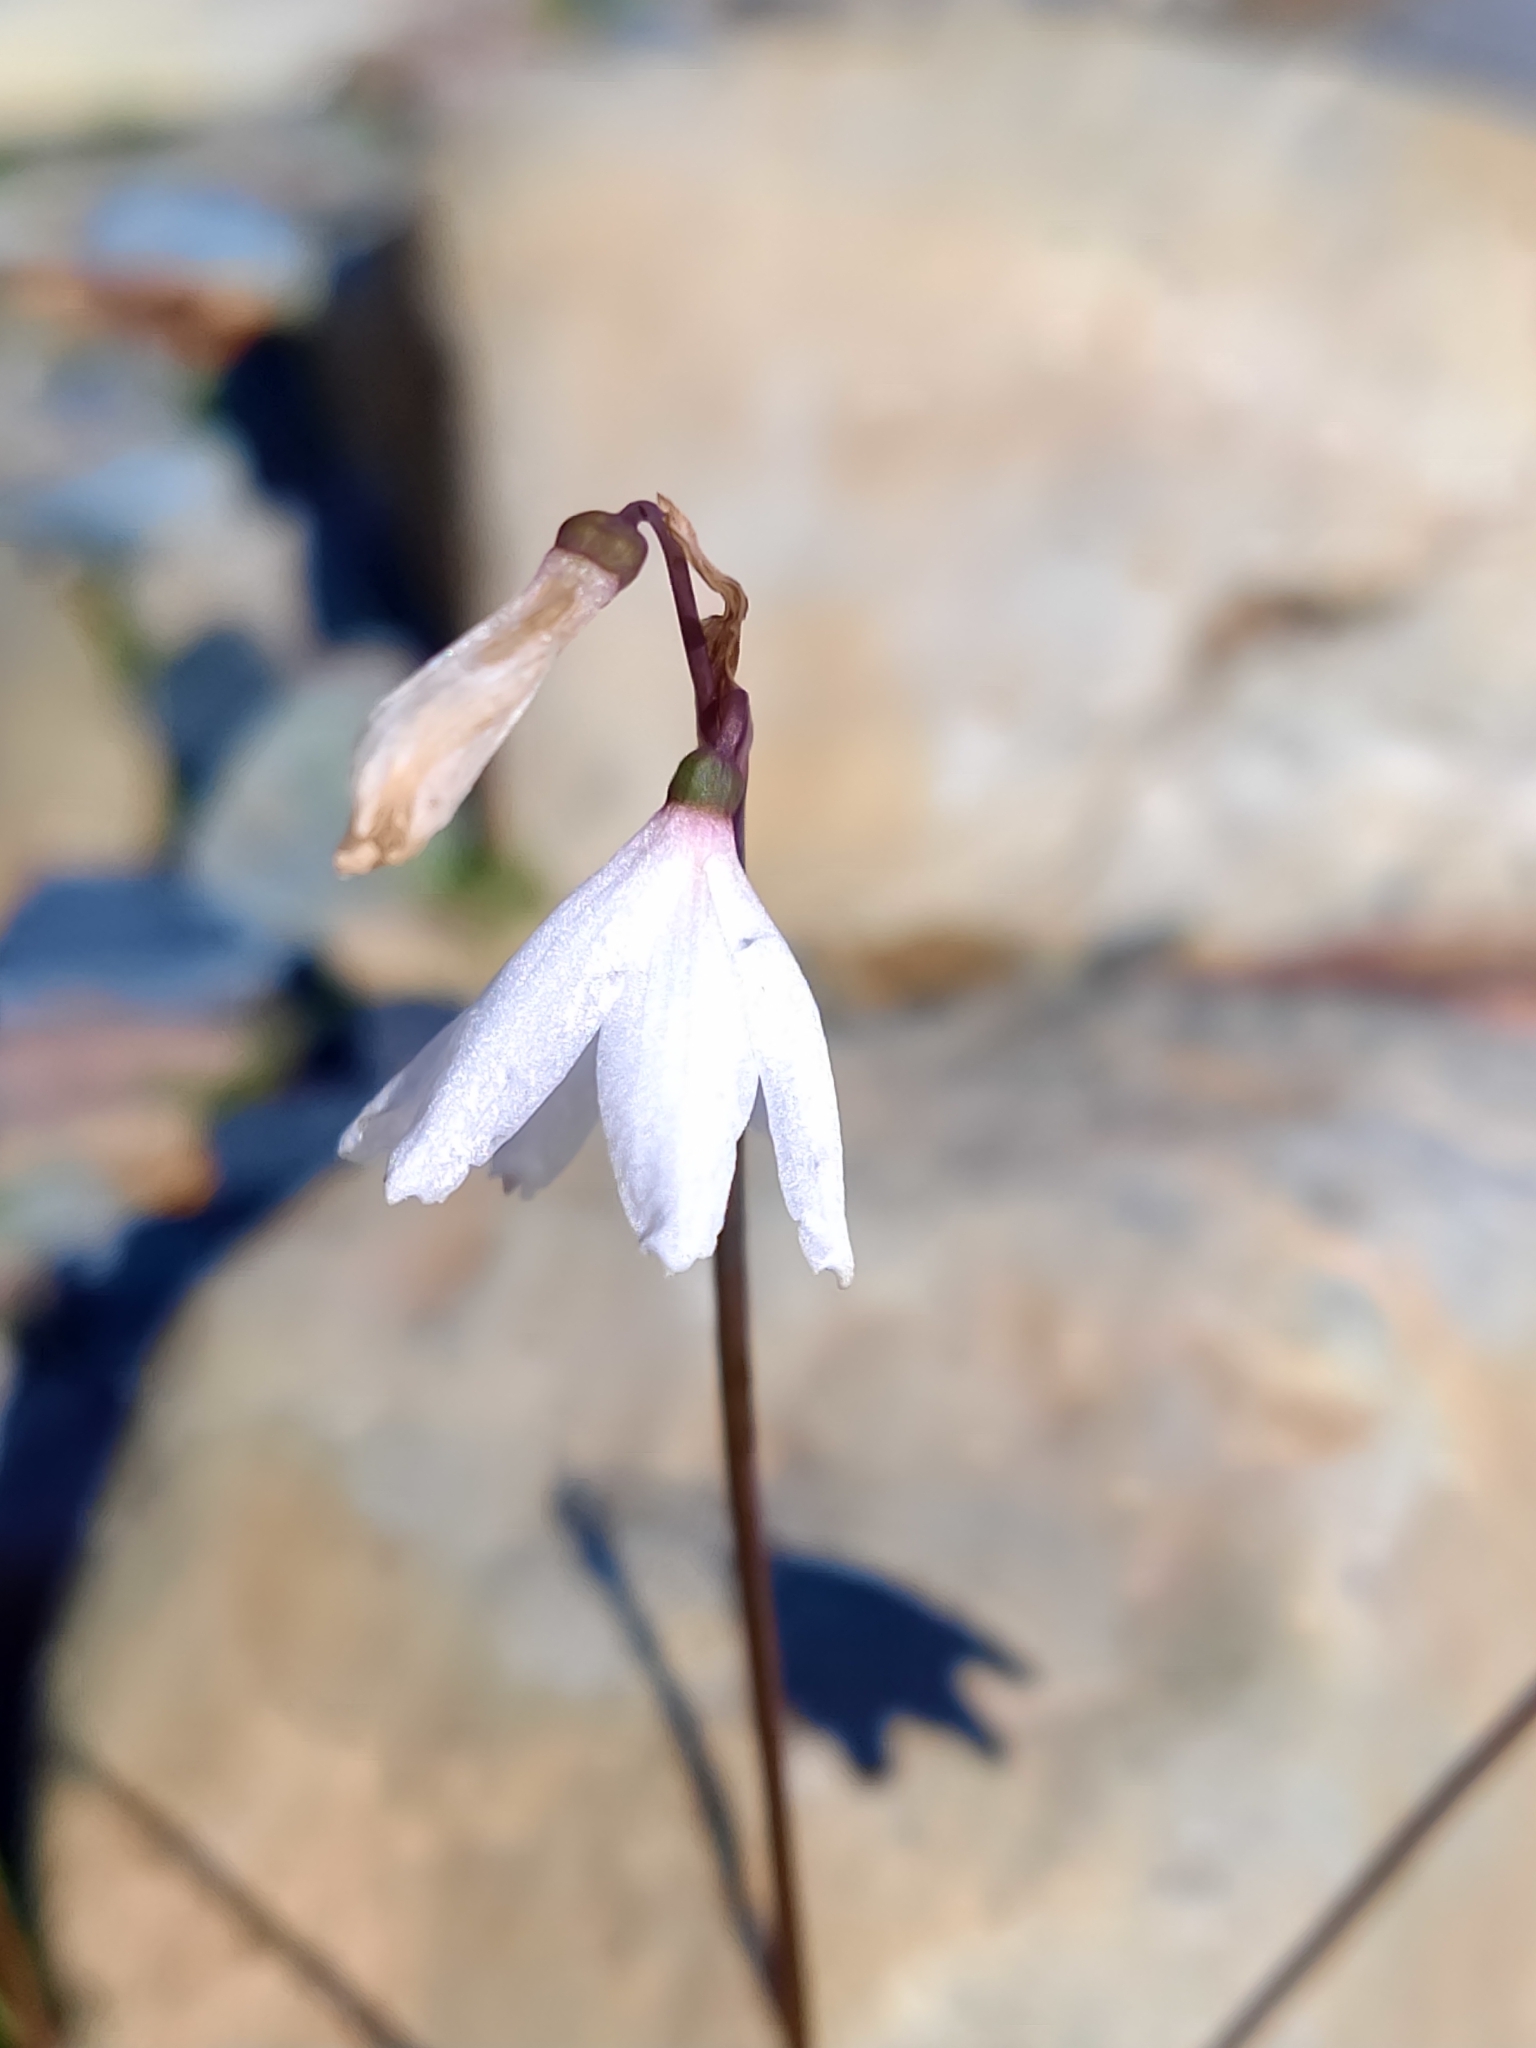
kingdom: Plantae
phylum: Tracheophyta
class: Liliopsida
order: Asparagales
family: Amaryllidaceae
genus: Acis
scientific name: Acis autumnalis
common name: Autumn snowflake
